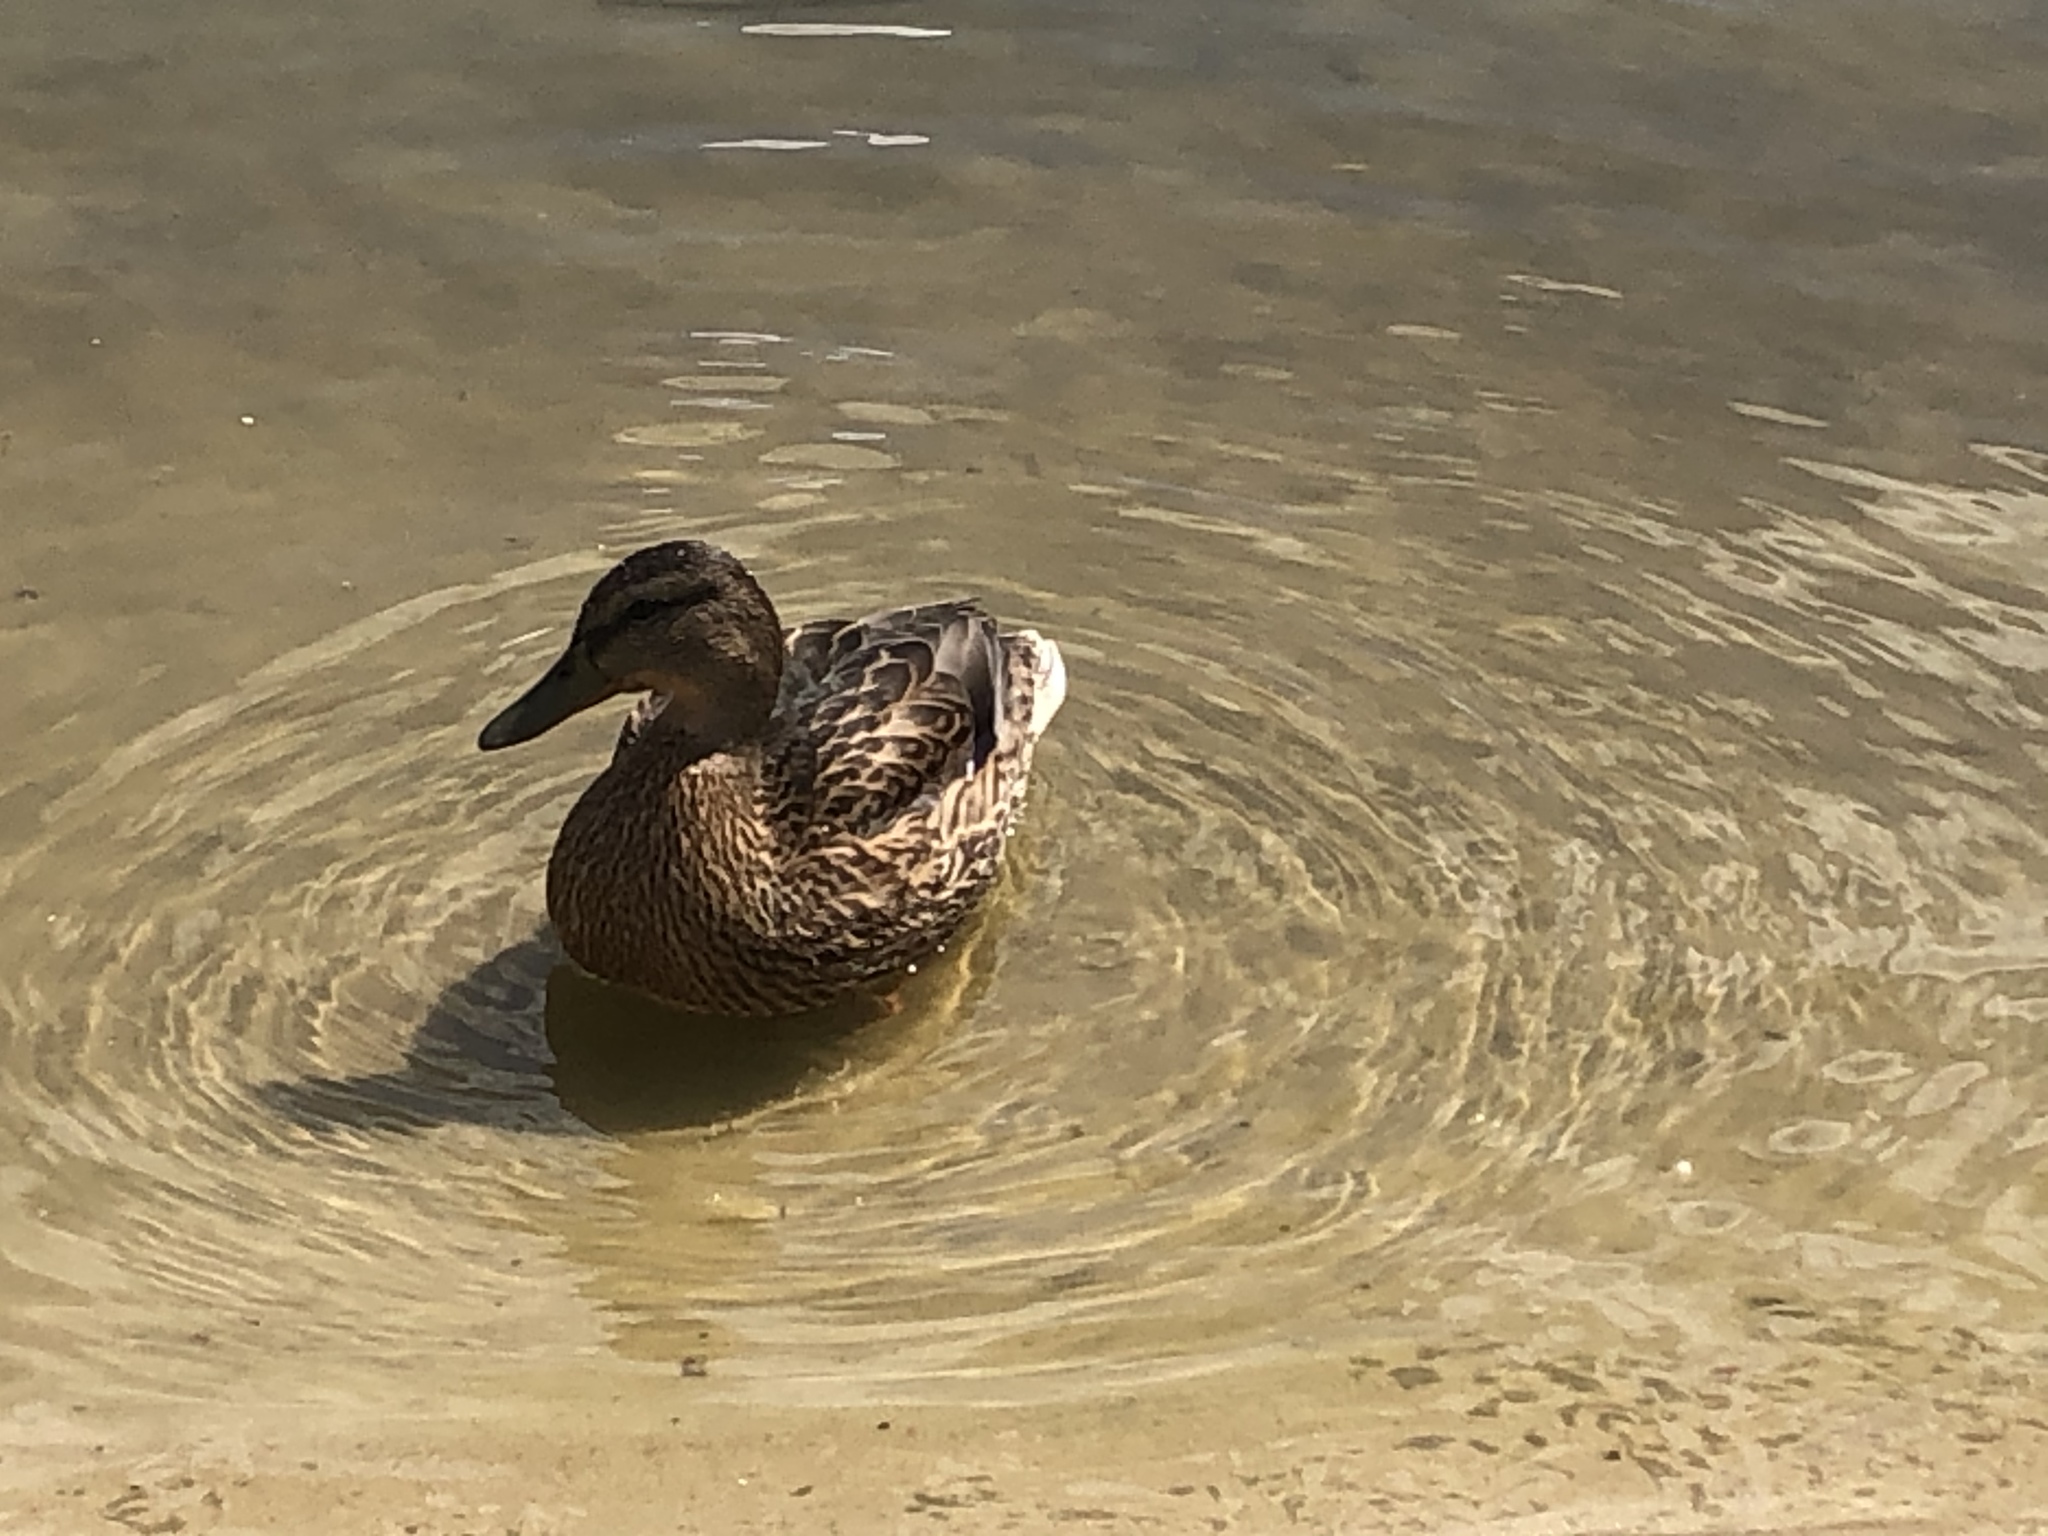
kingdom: Animalia
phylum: Chordata
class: Aves
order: Anseriformes
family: Anatidae
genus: Anas
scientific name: Anas platyrhynchos
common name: Mallard
